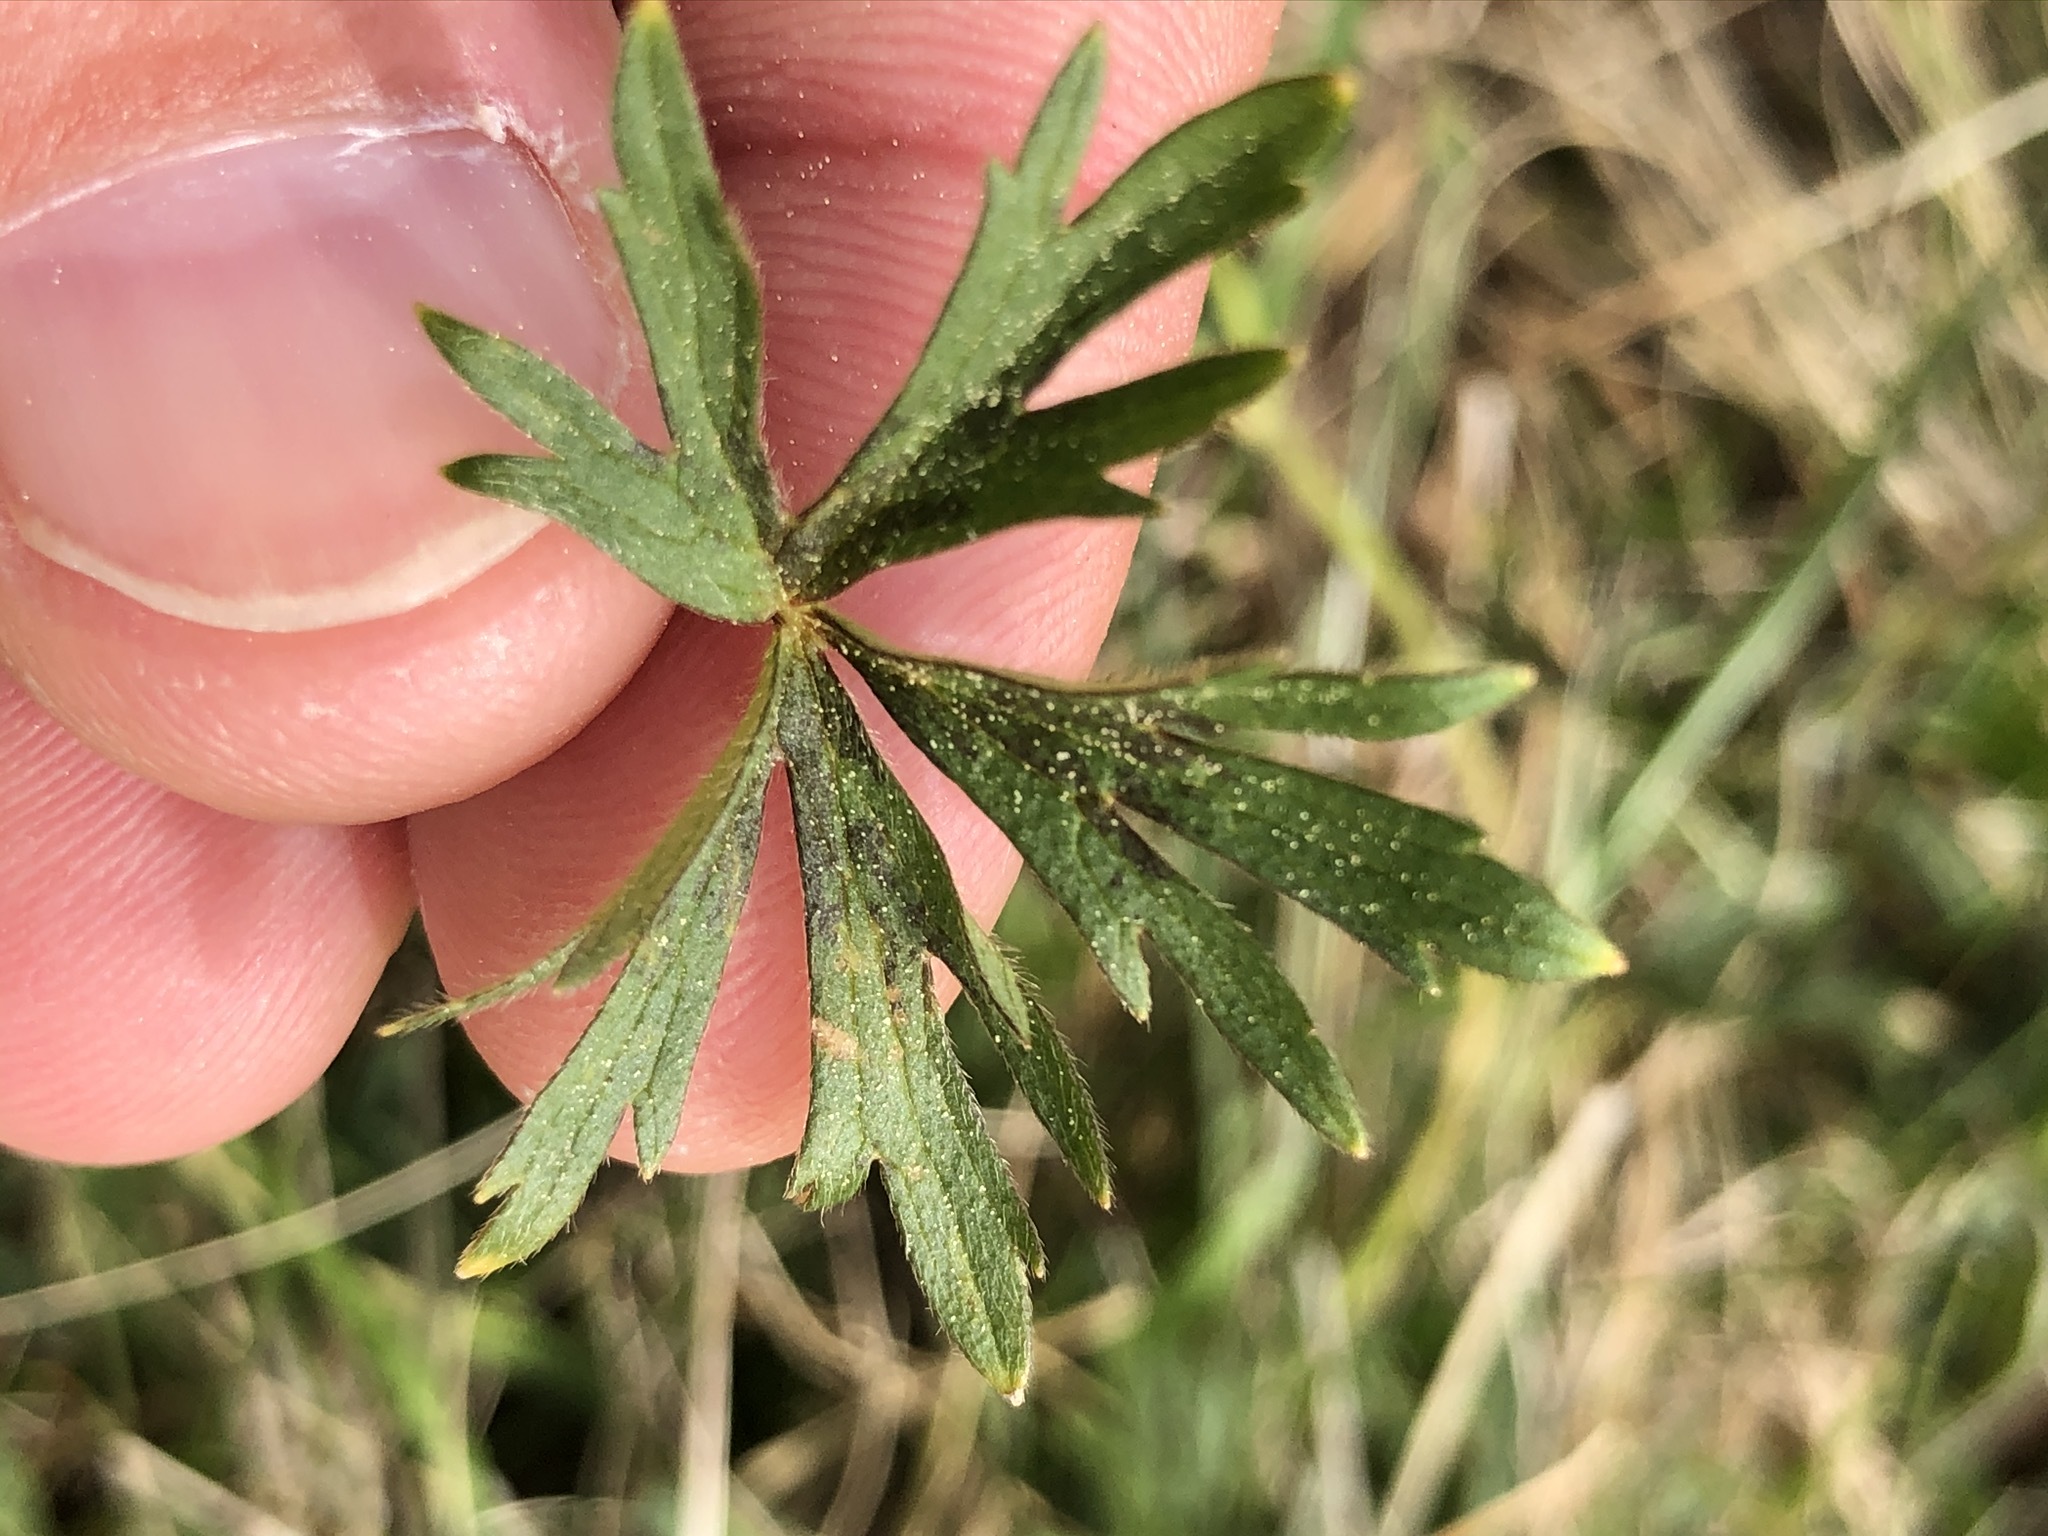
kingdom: Plantae
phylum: Tracheophyta
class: Magnoliopsida
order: Ranunculales
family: Ranunculaceae
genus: Ranunculus
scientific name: Ranunculus acris
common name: Meadow buttercup
